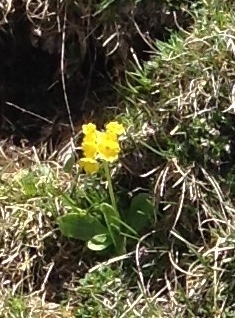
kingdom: Plantae
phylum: Tracheophyta
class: Magnoliopsida
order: Ericales
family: Primulaceae
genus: Primula
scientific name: Primula auricula
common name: Auricula
